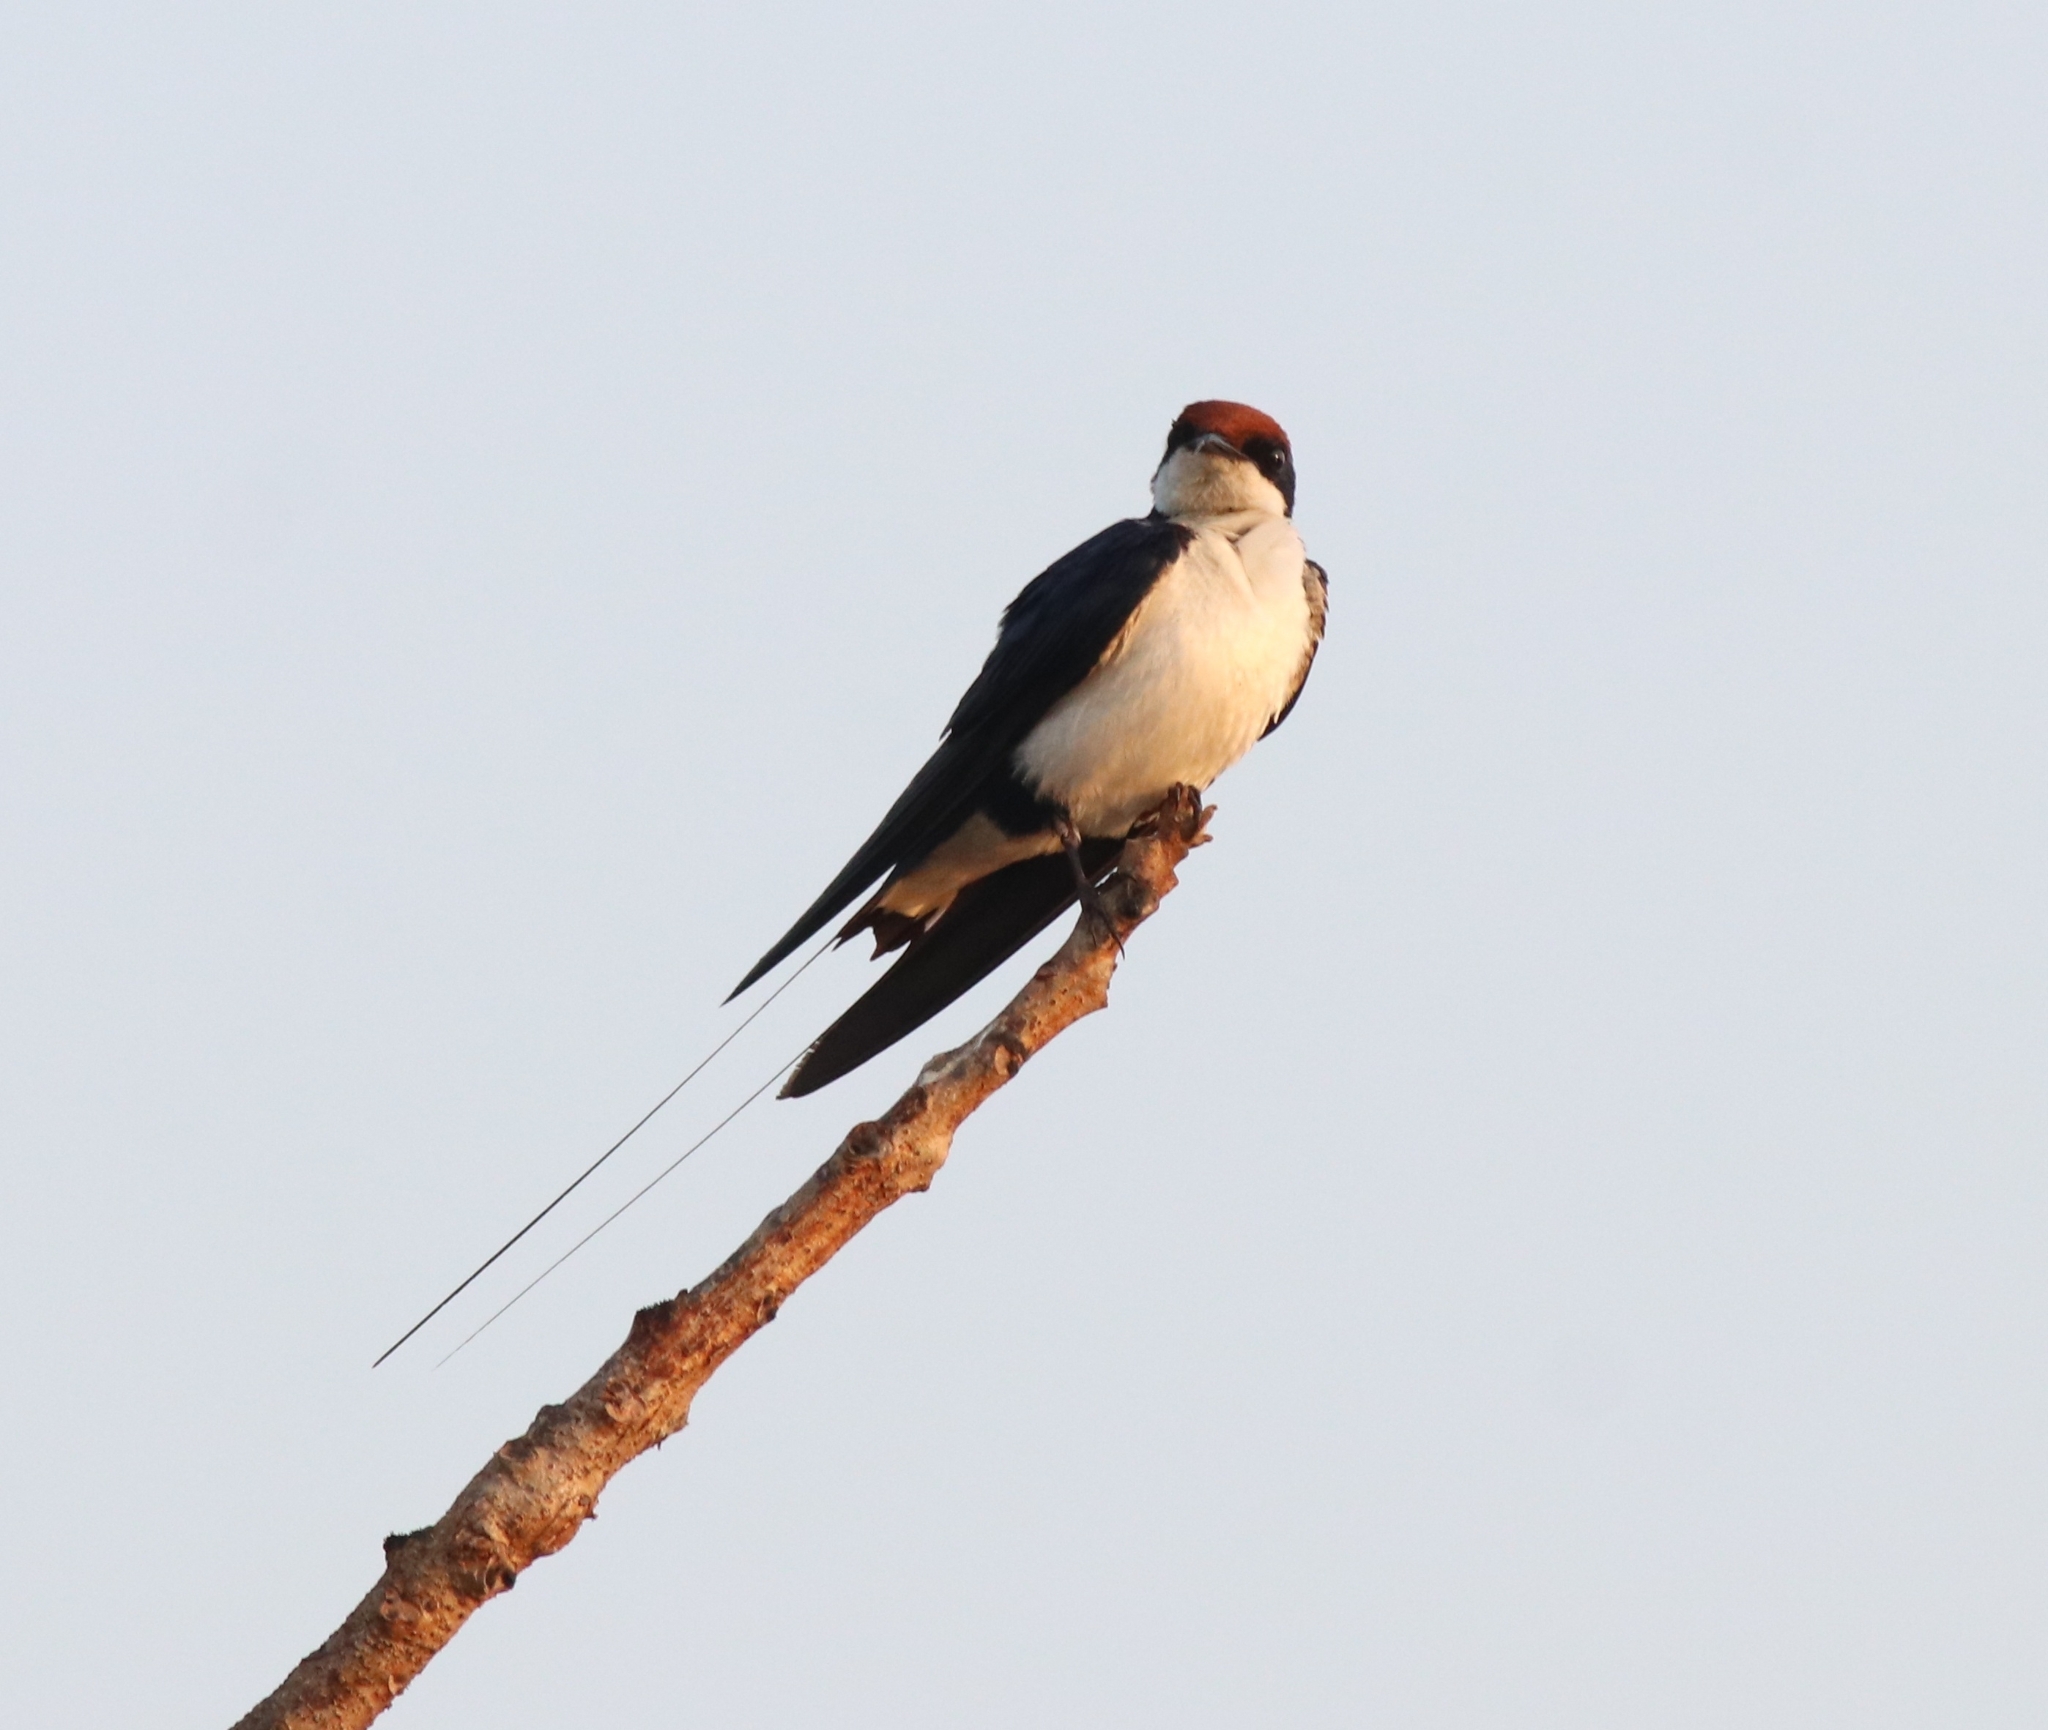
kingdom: Animalia
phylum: Chordata
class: Aves
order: Passeriformes
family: Hirundinidae
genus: Hirundo
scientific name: Hirundo smithii
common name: Wire-tailed swallow
